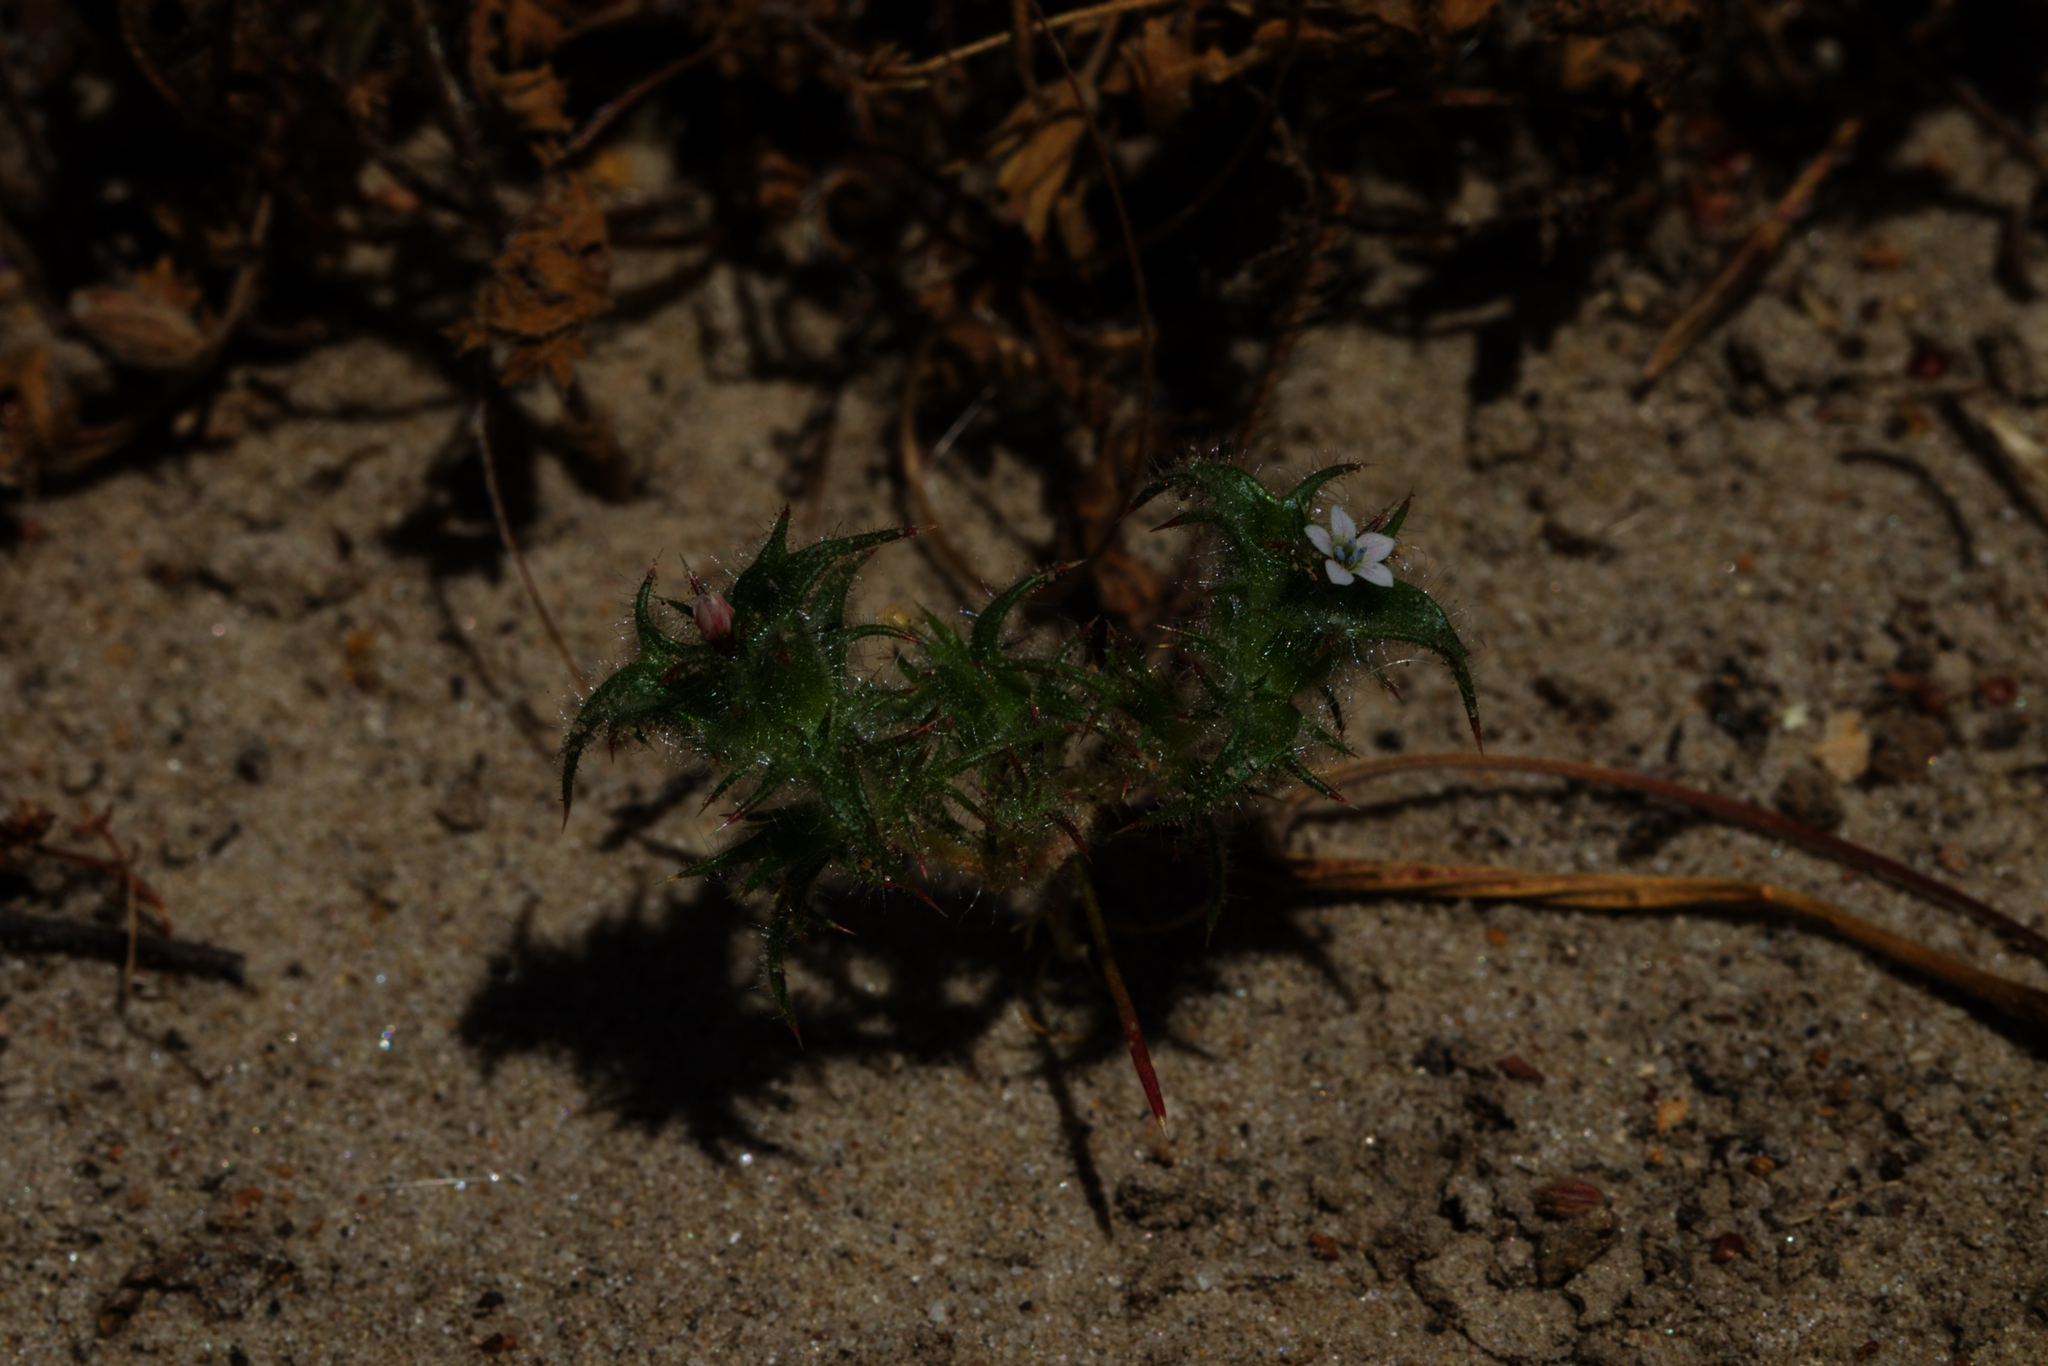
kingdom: Plantae
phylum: Tracheophyta
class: Magnoliopsida
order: Ericales
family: Polemoniaceae
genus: Navarretia
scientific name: Navarretia atractyloides
